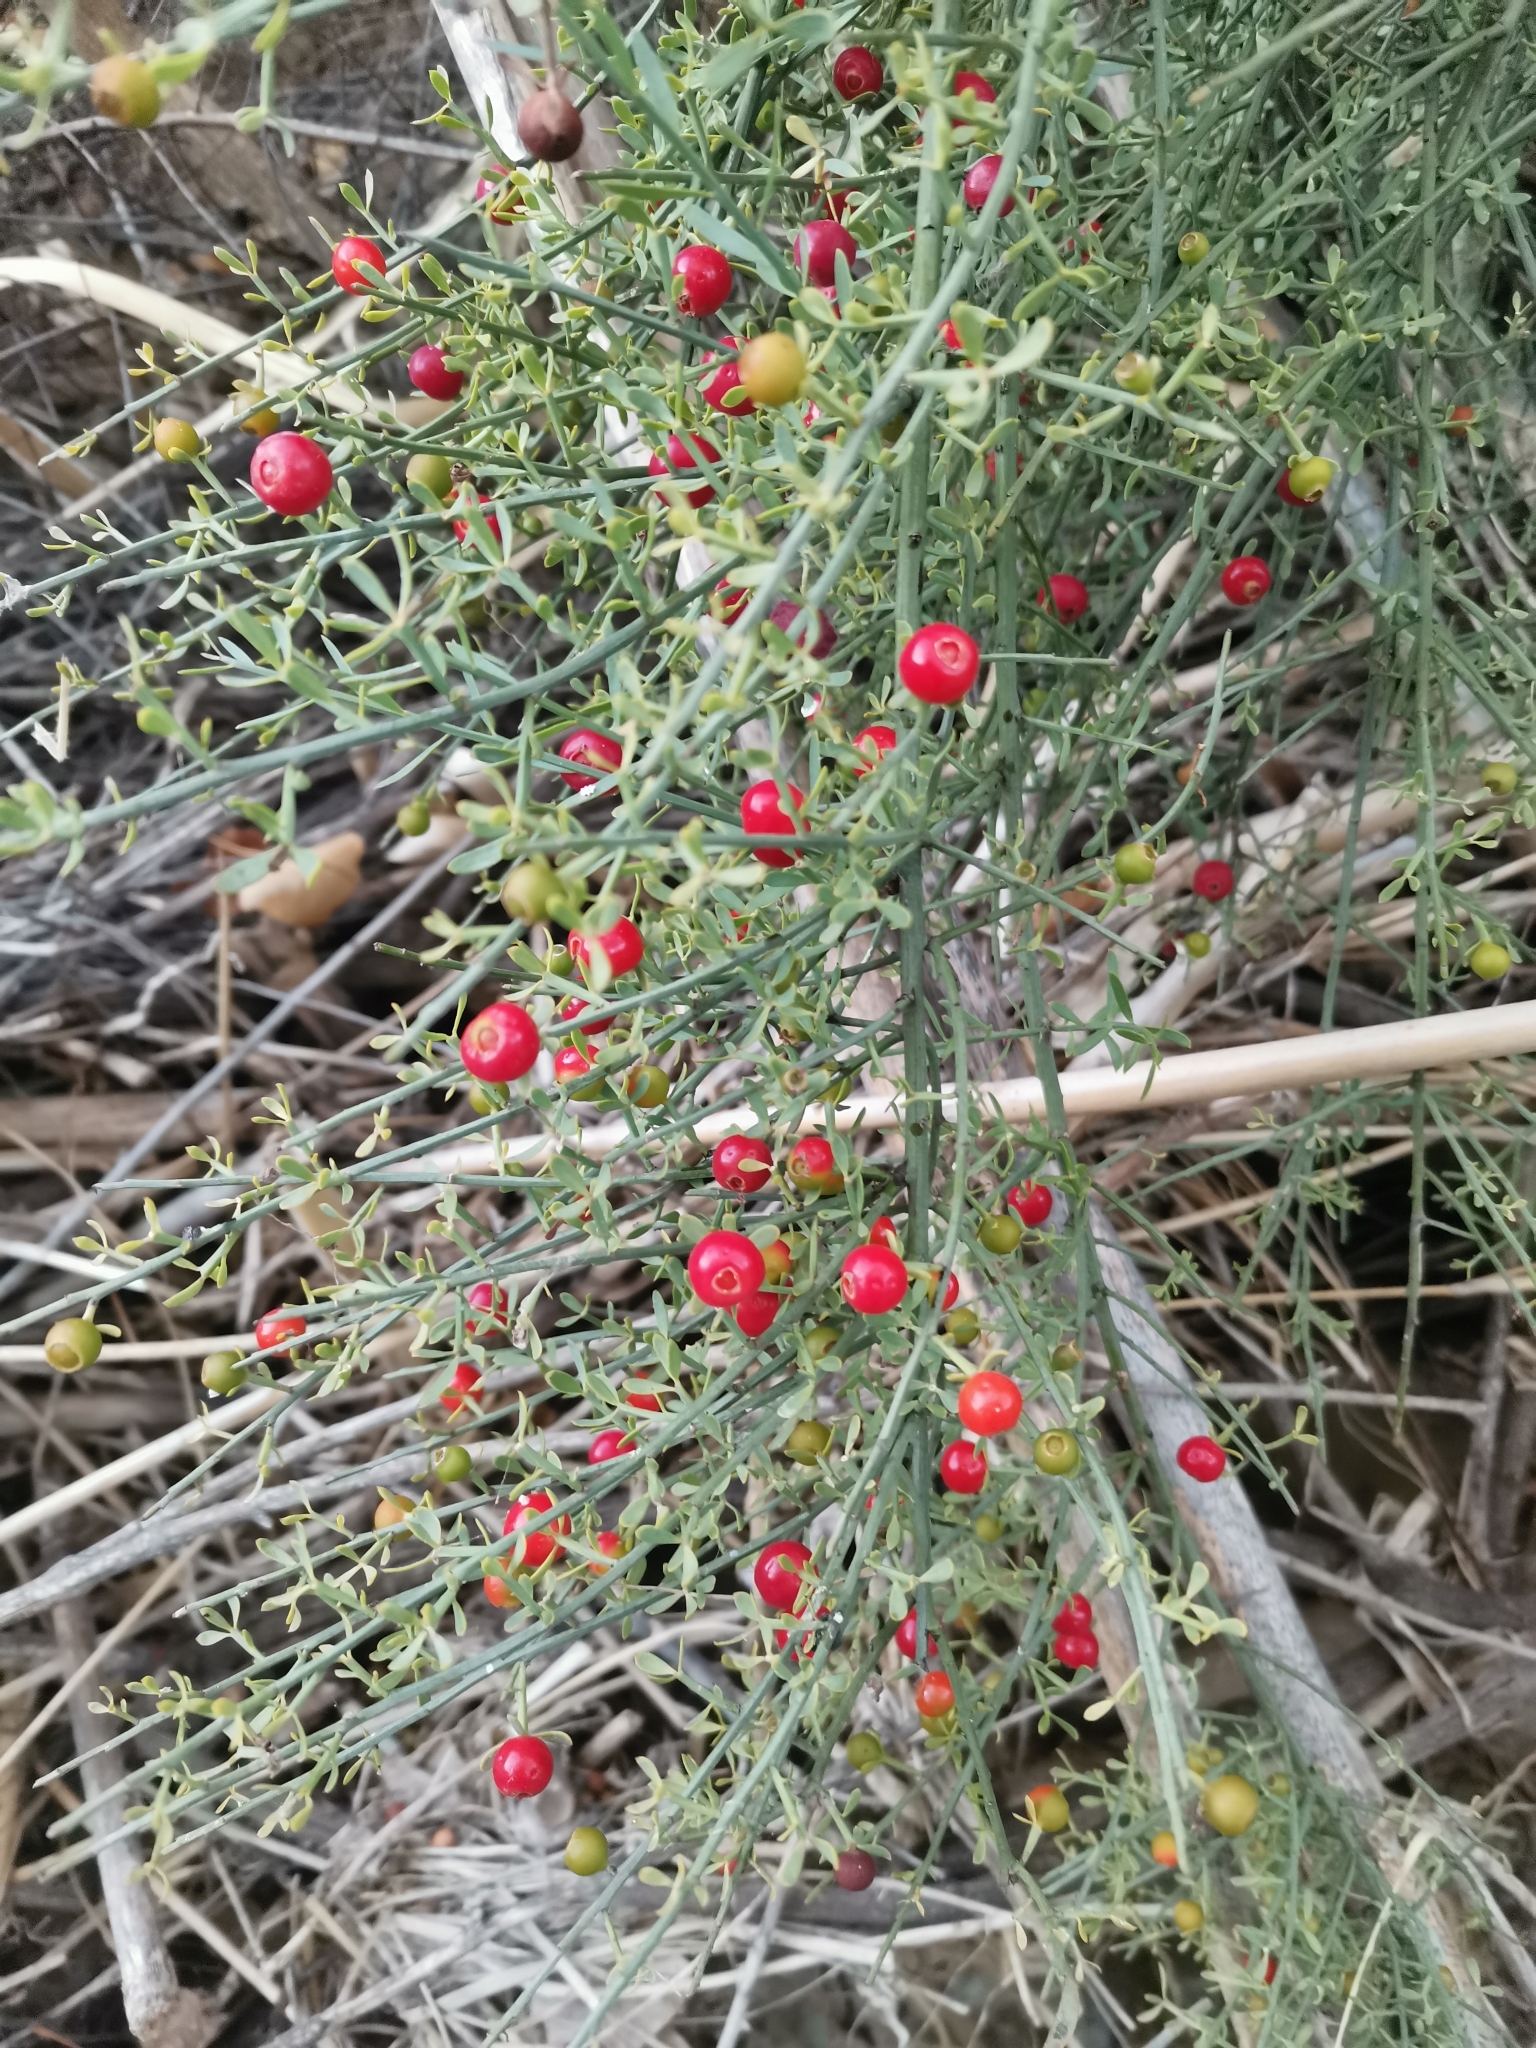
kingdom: Plantae
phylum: Tracheophyta
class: Magnoliopsida
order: Santalales
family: Santalaceae
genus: Osyris
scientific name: Osyris alba
